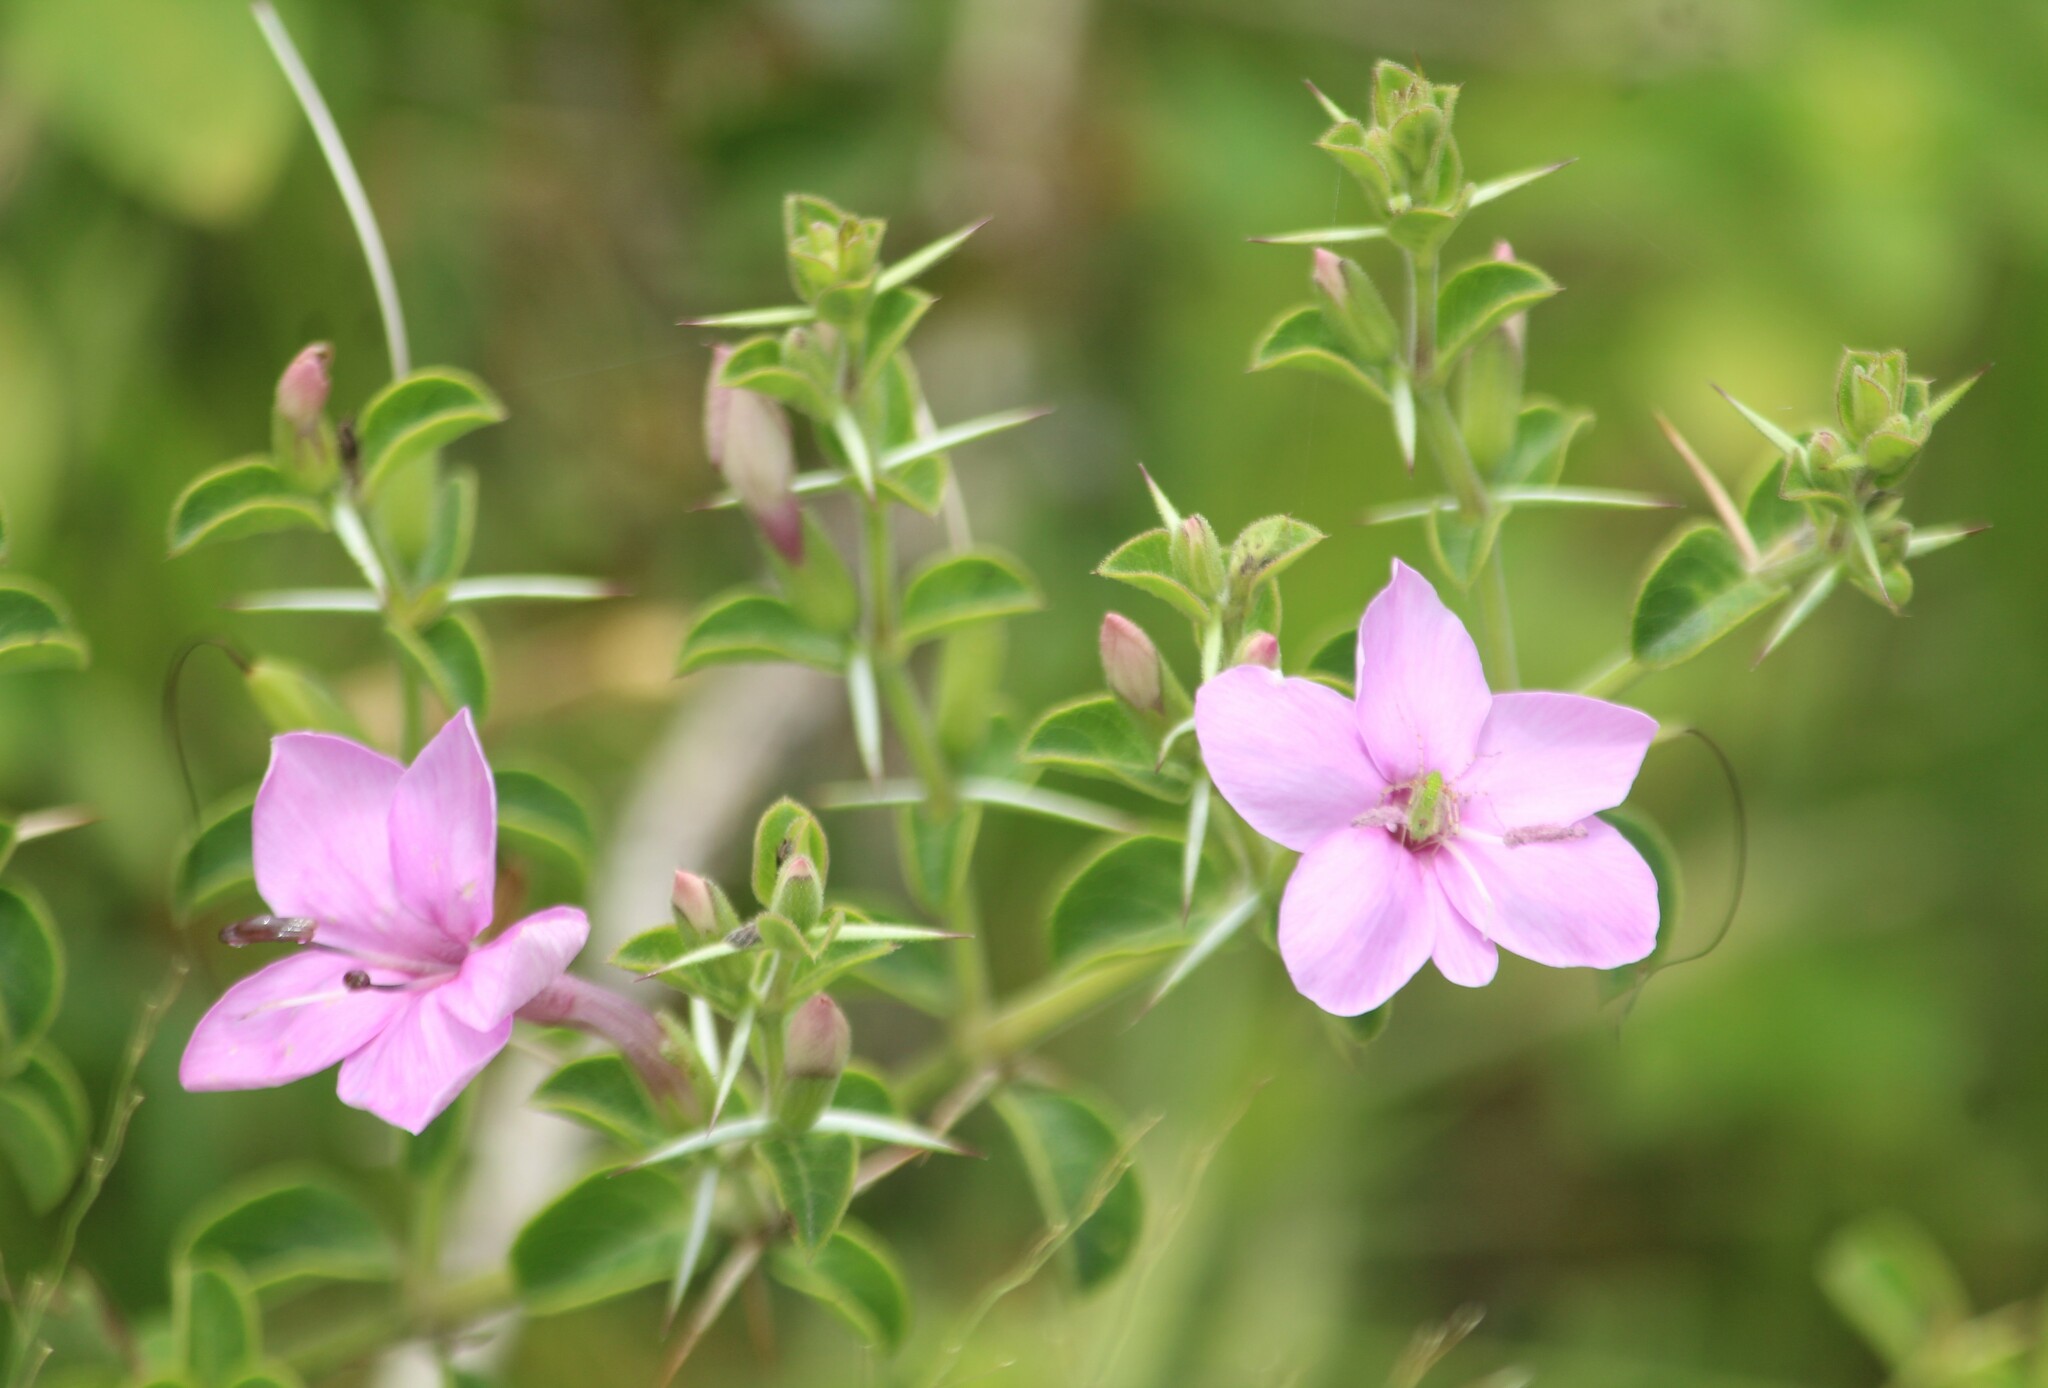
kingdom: Plantae
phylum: Tracheophyta
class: Magnoliopsida
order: Lamiales
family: Acanthaceae
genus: Barleria
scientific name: Barleria mysorensis
